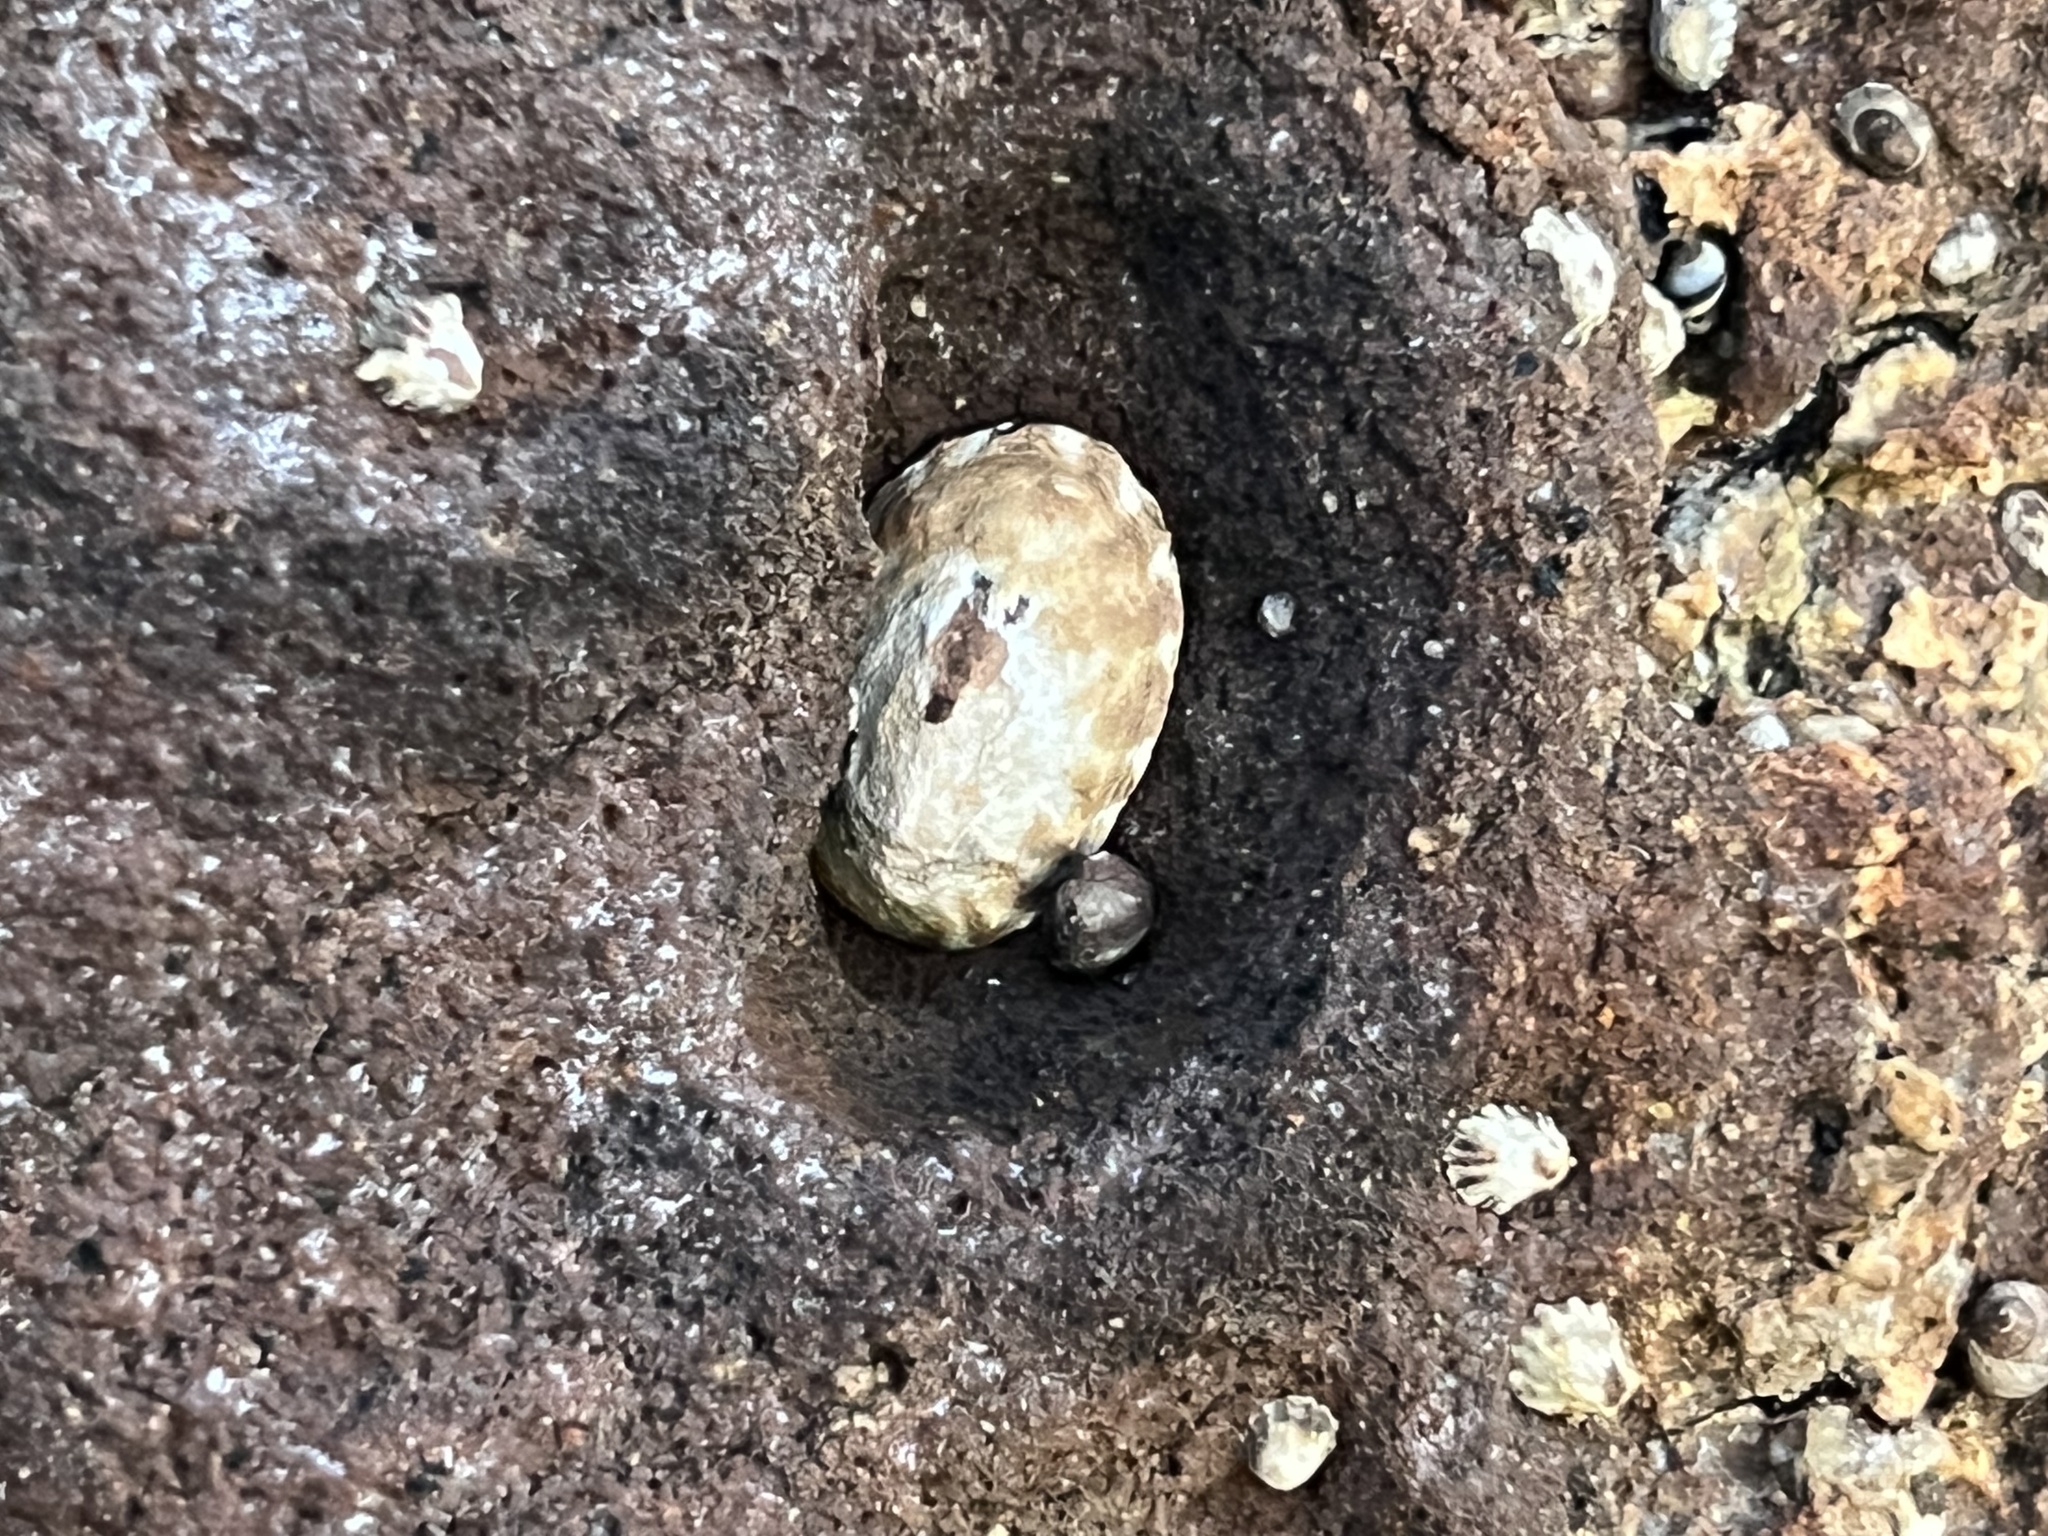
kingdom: Animalia
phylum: Mollusca
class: Gastropoda
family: Lottiidae
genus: Lottia
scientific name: Lottia gigantea
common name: Owl limpet
